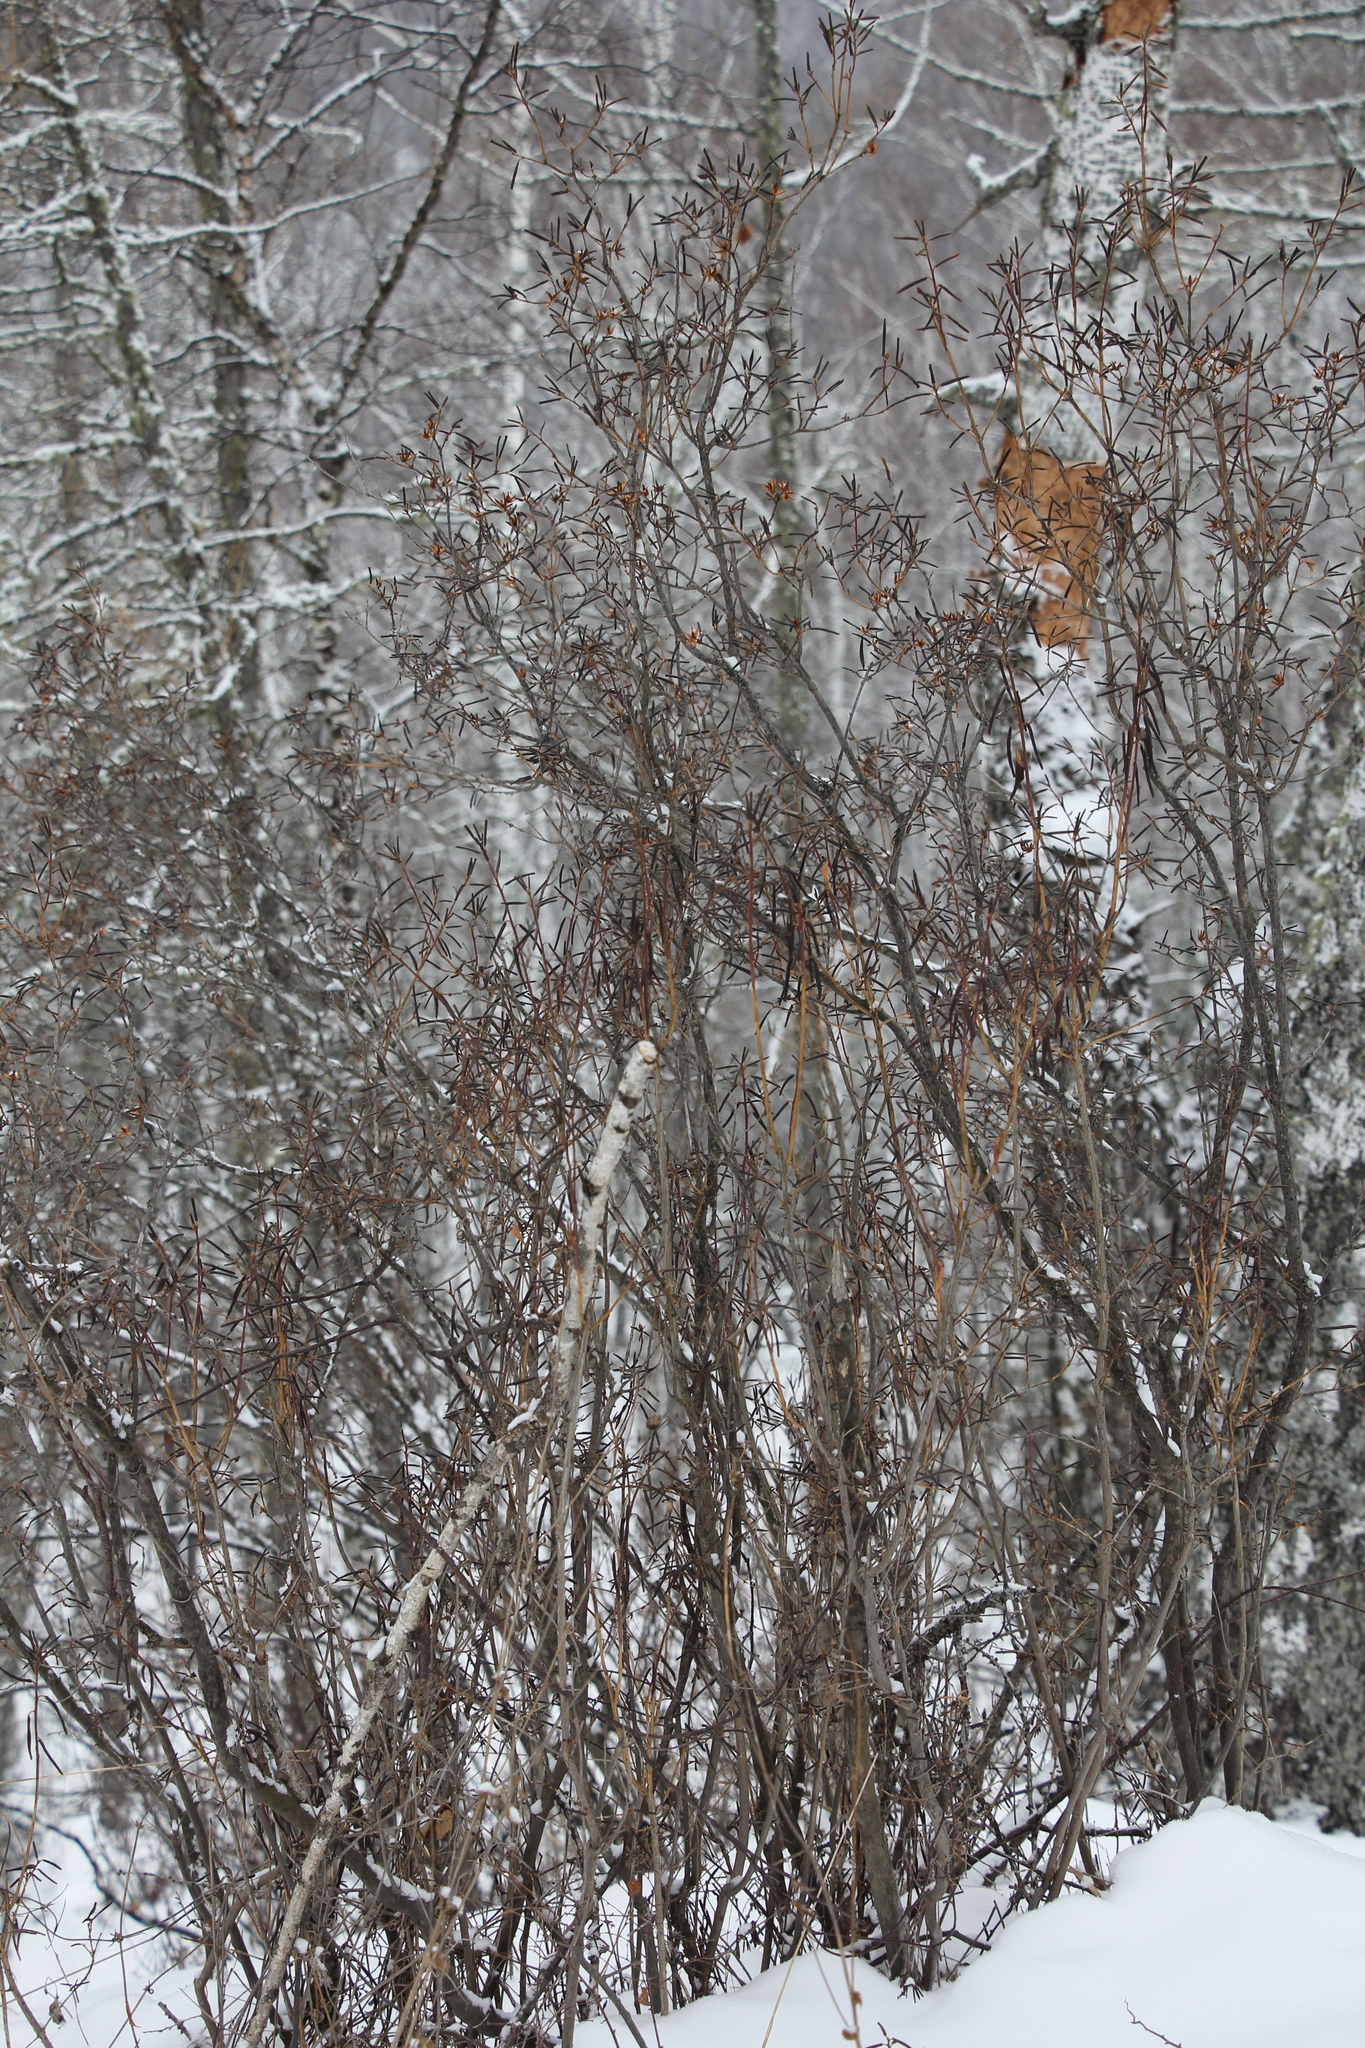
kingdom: Plantae
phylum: Tracheophyta
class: Magnoliopsida
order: Ericales
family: Ericaceae
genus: Rhododendron
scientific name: Rhododendron dauricum
